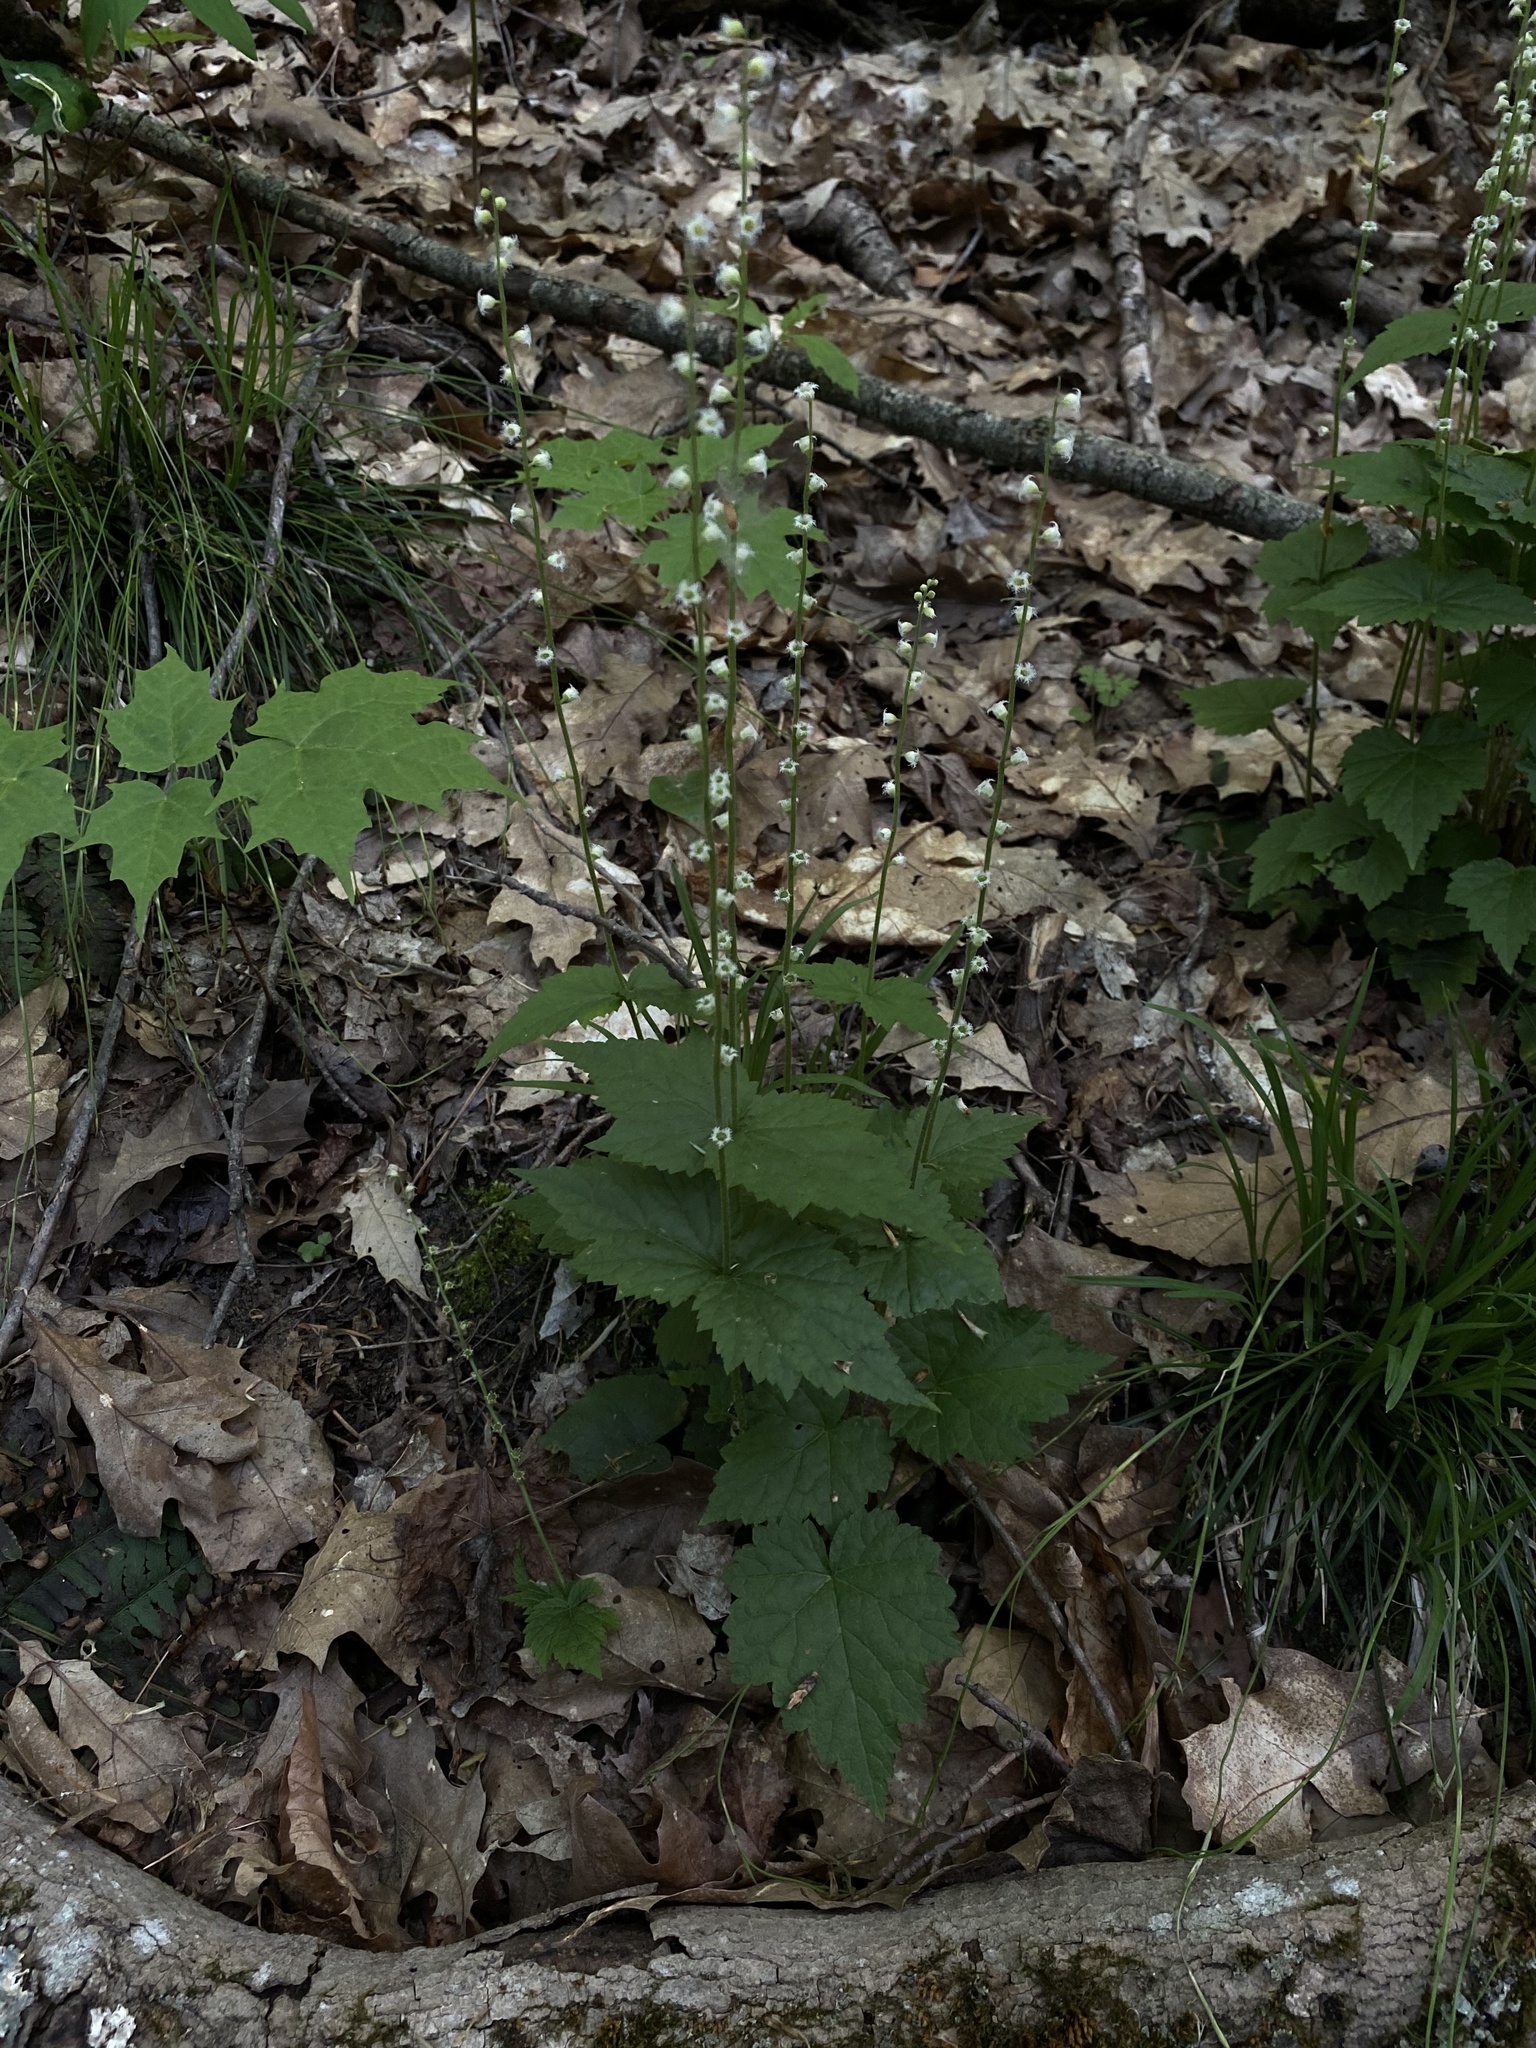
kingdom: Plantae
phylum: Tracheophyta
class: Magnoliopsida
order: Saxifragales
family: Saxifragaceae
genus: Mitella
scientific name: Mitella diphylla
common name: Coolwort
